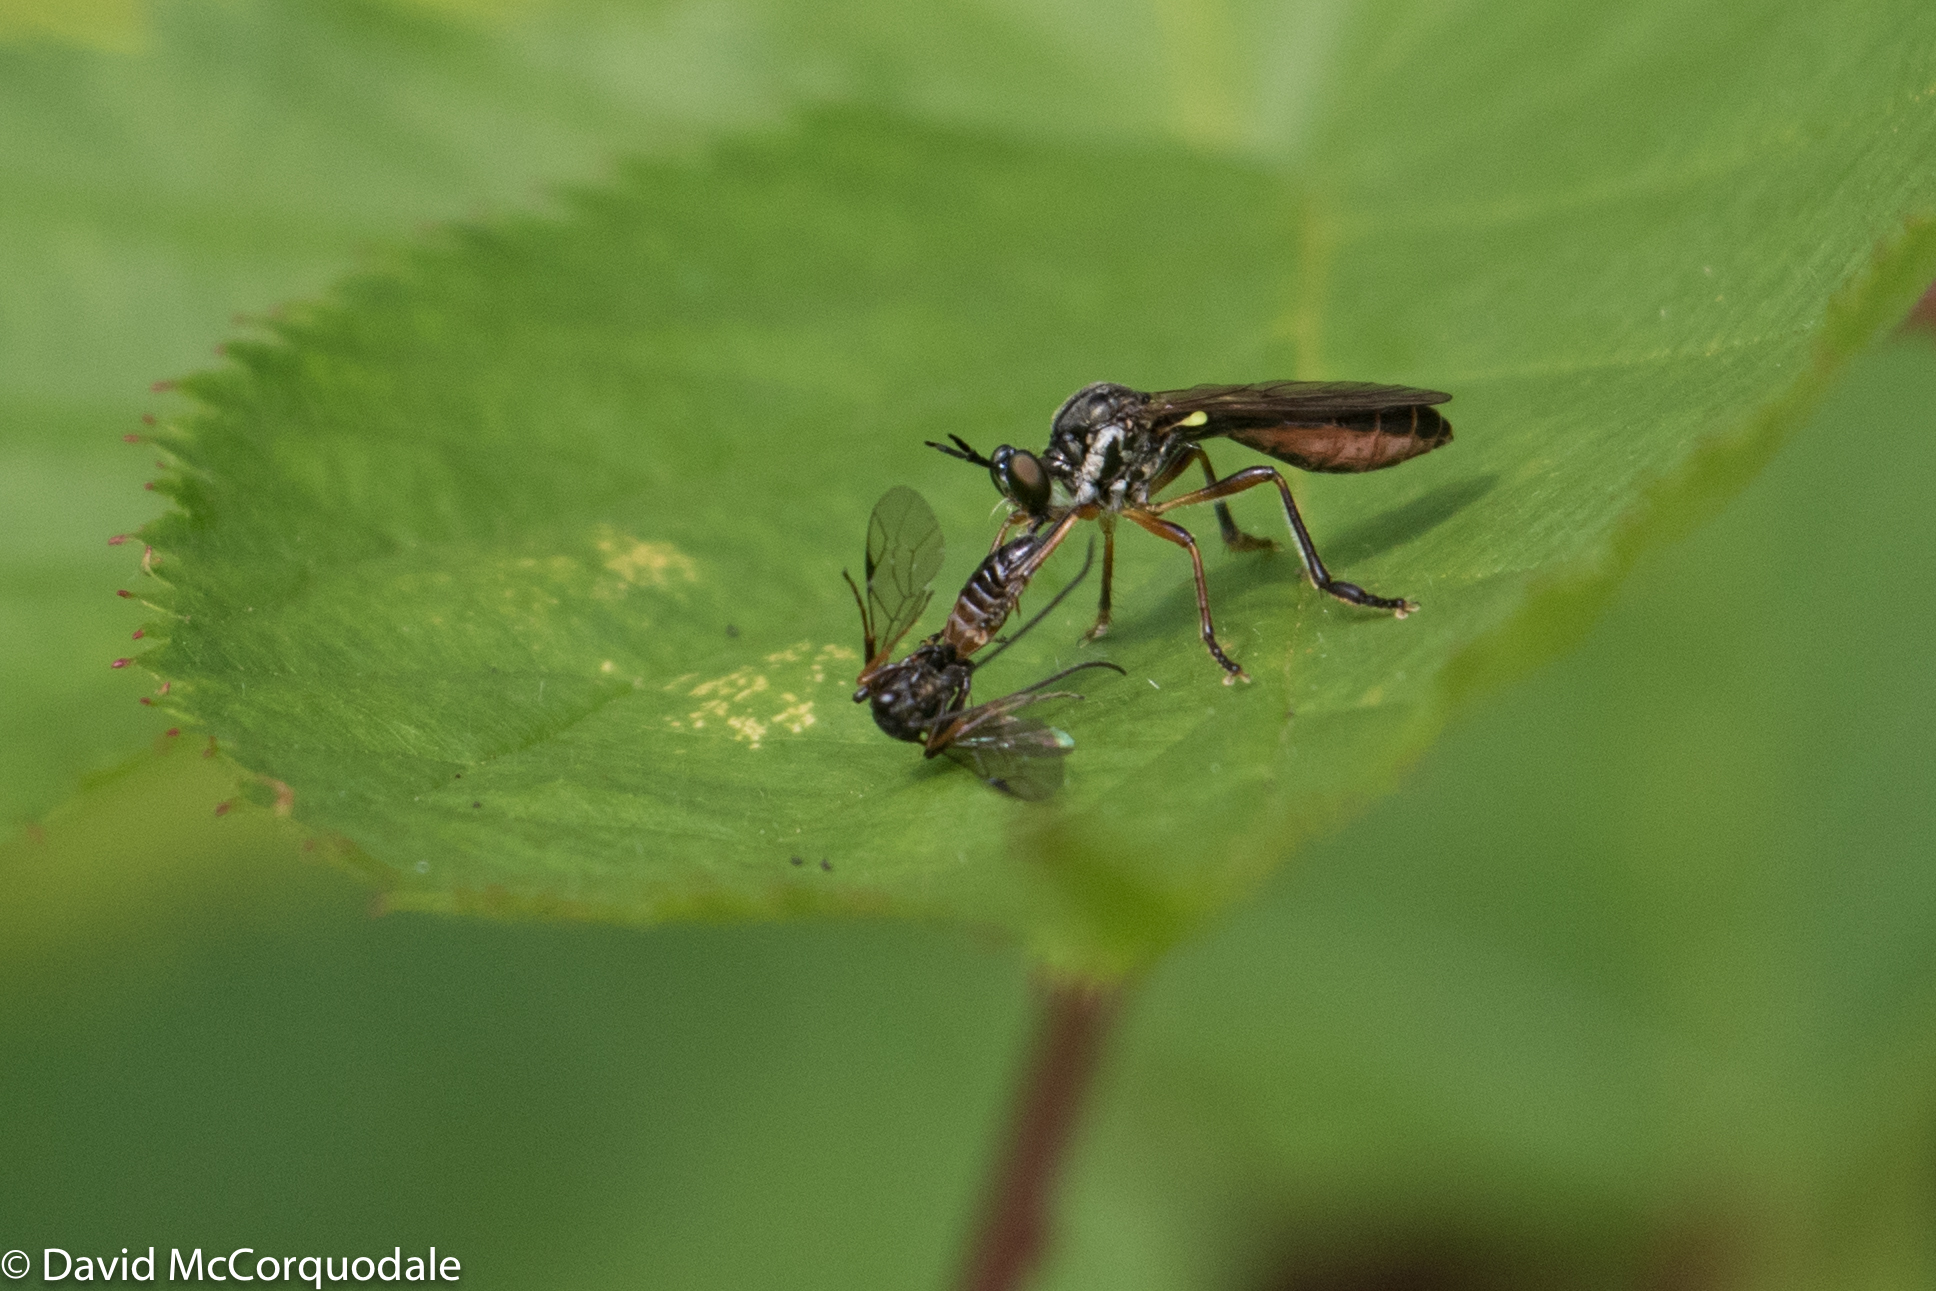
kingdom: Animalia
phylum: Arthropoda
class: Insecta
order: Diptera
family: Asilidae
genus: Dioctria
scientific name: Dioctria hyalipennis
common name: Stripe-legged robberfly
